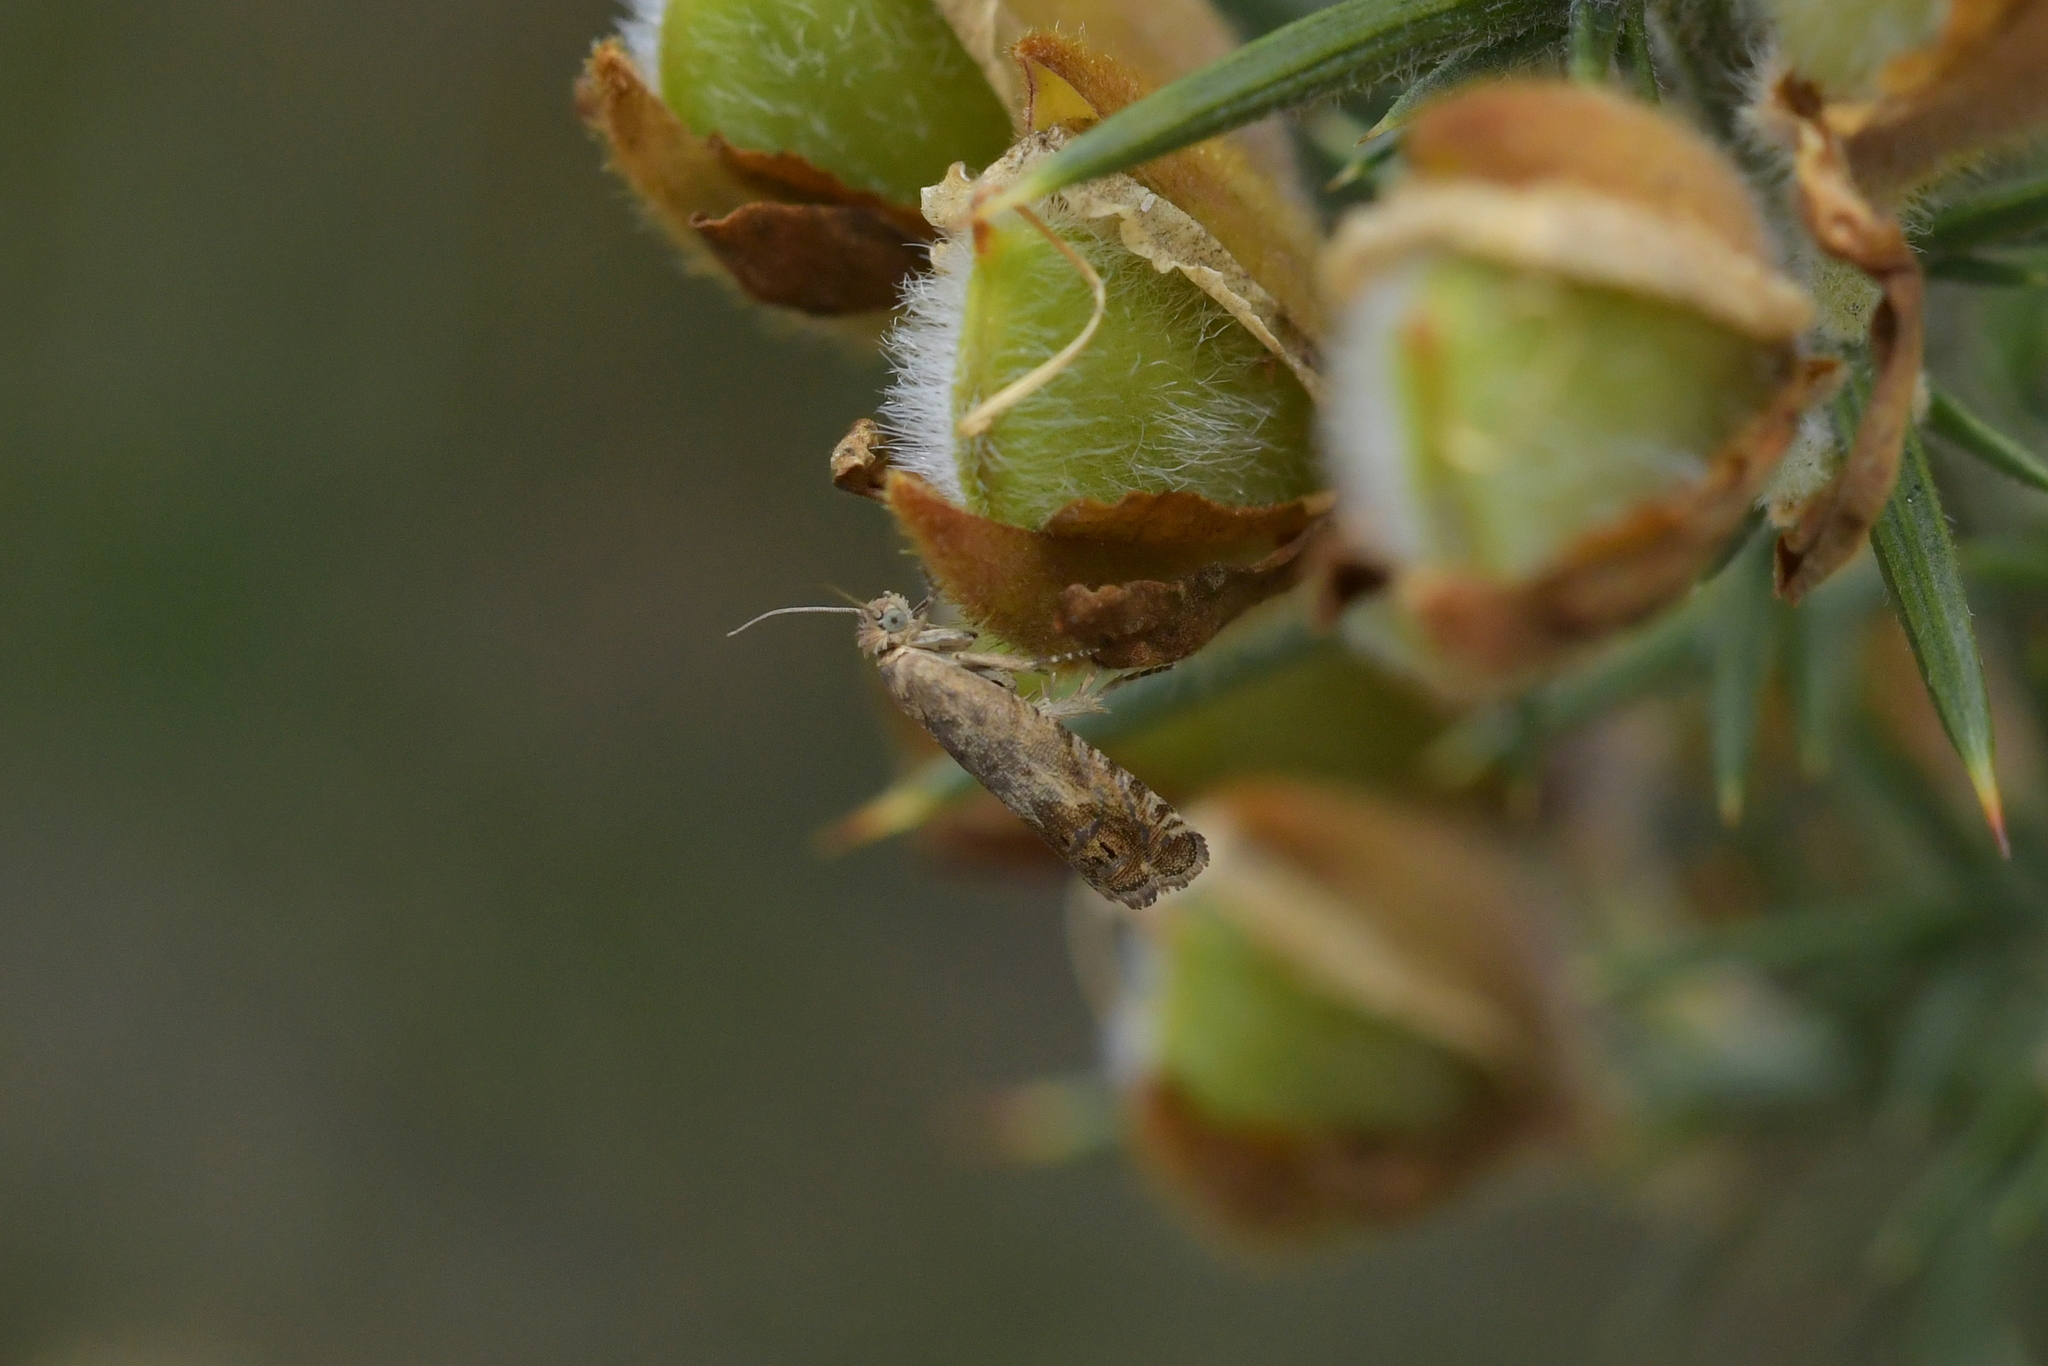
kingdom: Animalia
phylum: Arthropoda
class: Insecta
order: Lepidoptera
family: Tortricidae
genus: Cydia
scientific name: Cydia succedana
